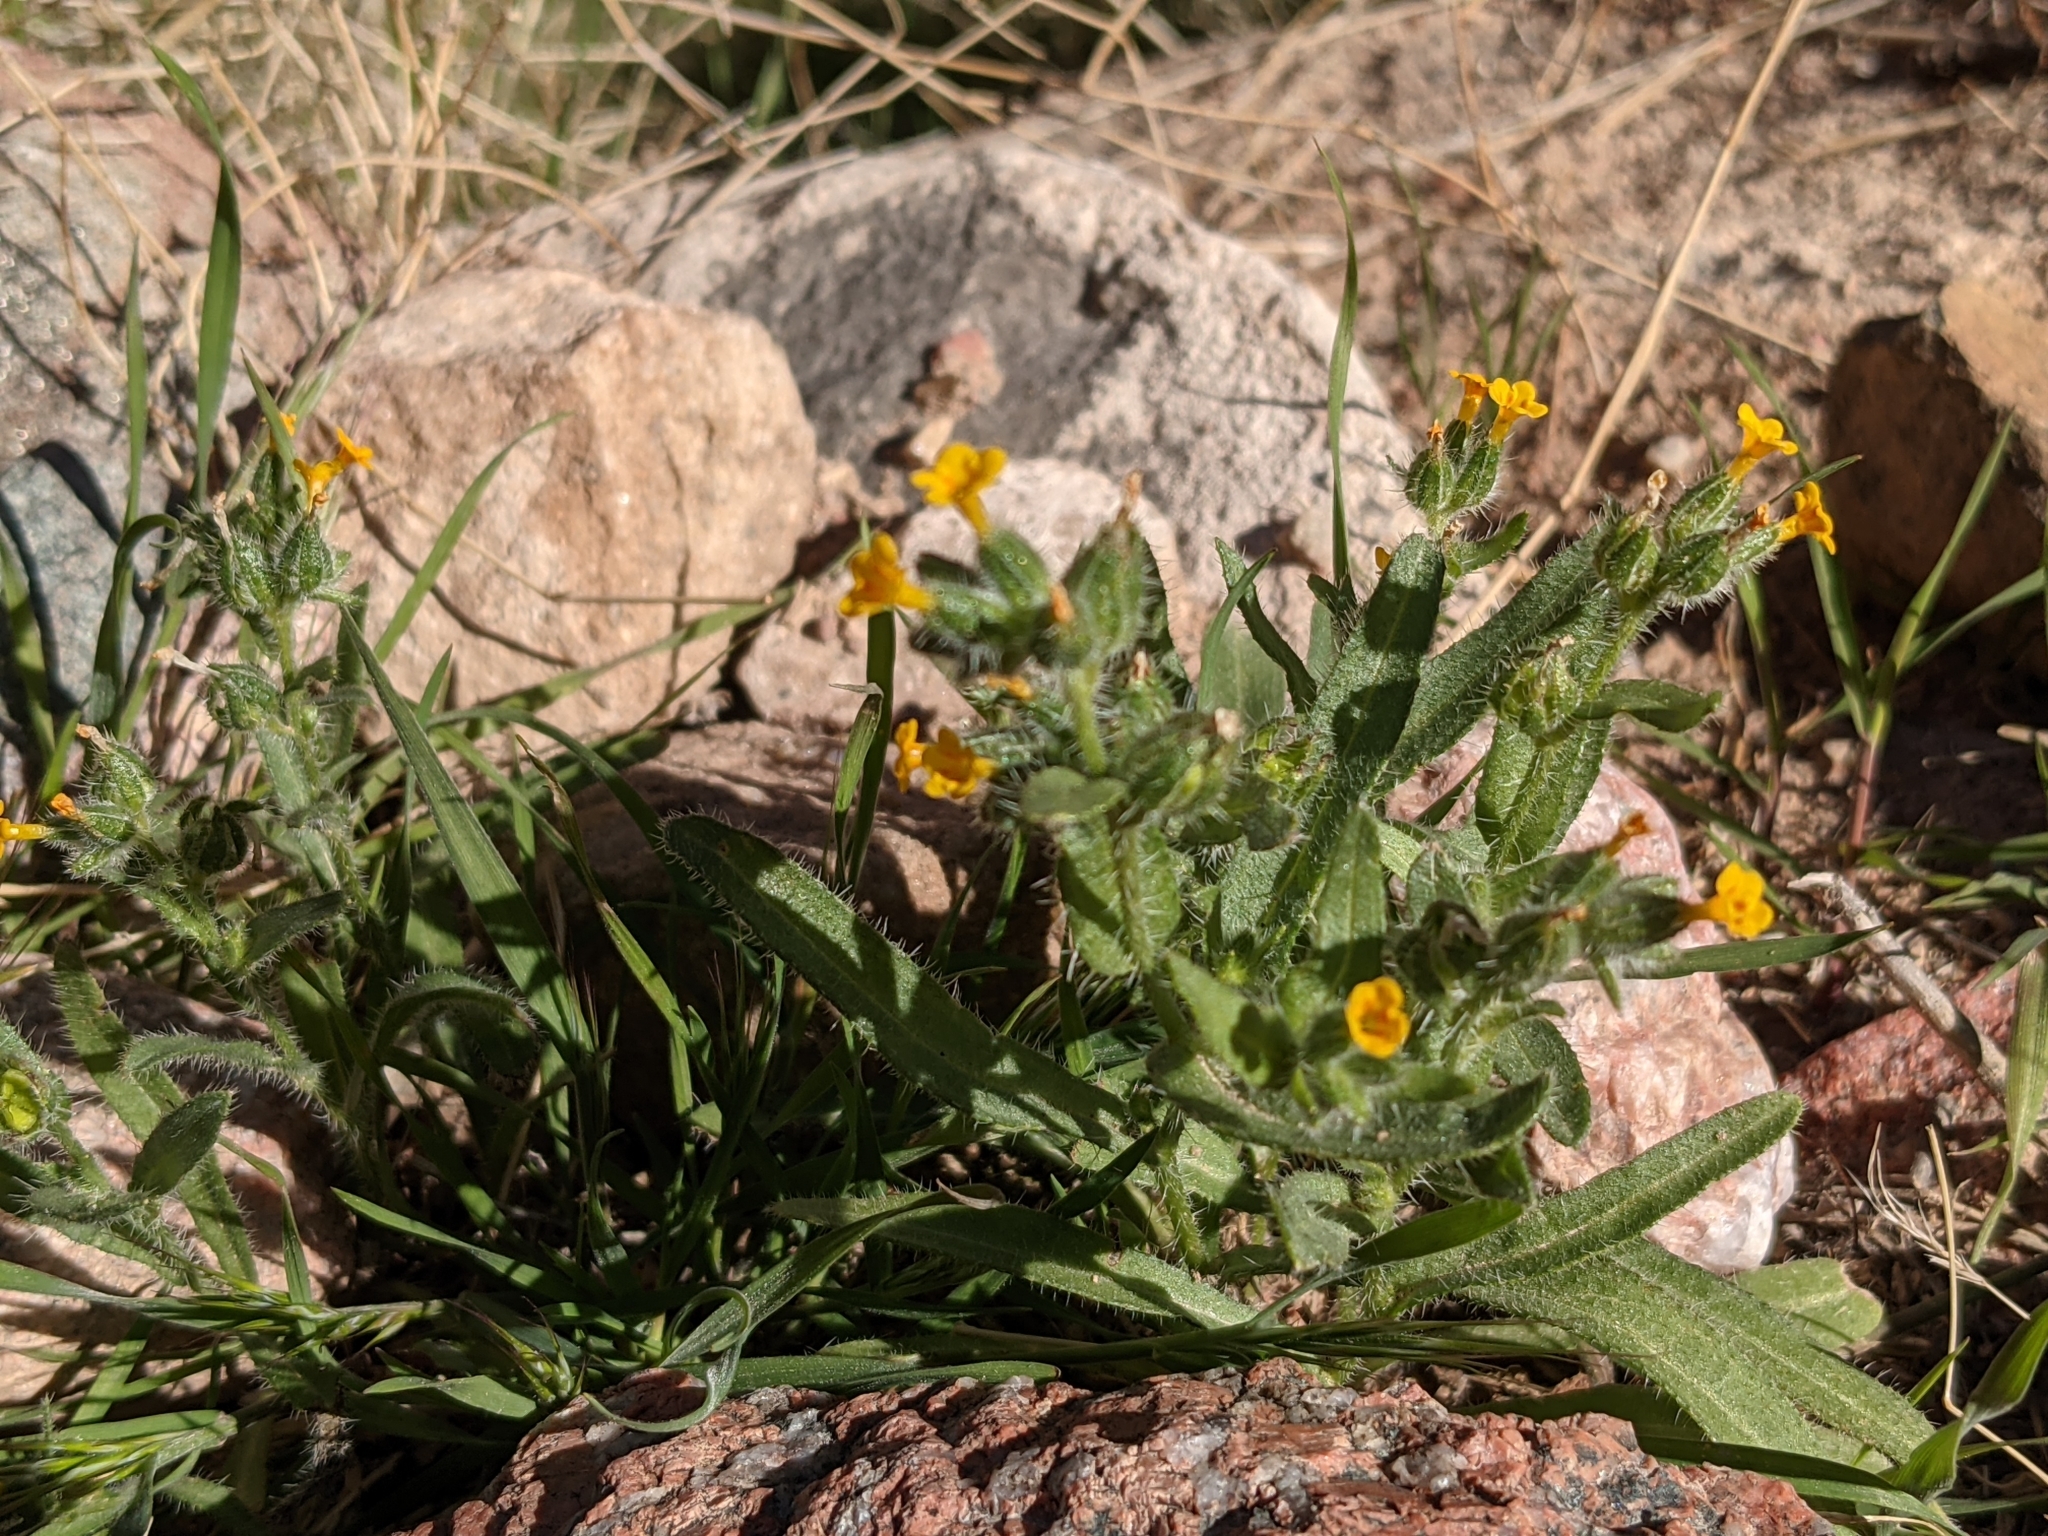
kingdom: Plantae
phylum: Tracheophyta
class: Magnoliopsida
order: Boraginales
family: Boraginaceae
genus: Amsinckia
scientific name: Amsinckia menziesii
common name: Menzies' fiddleneck
